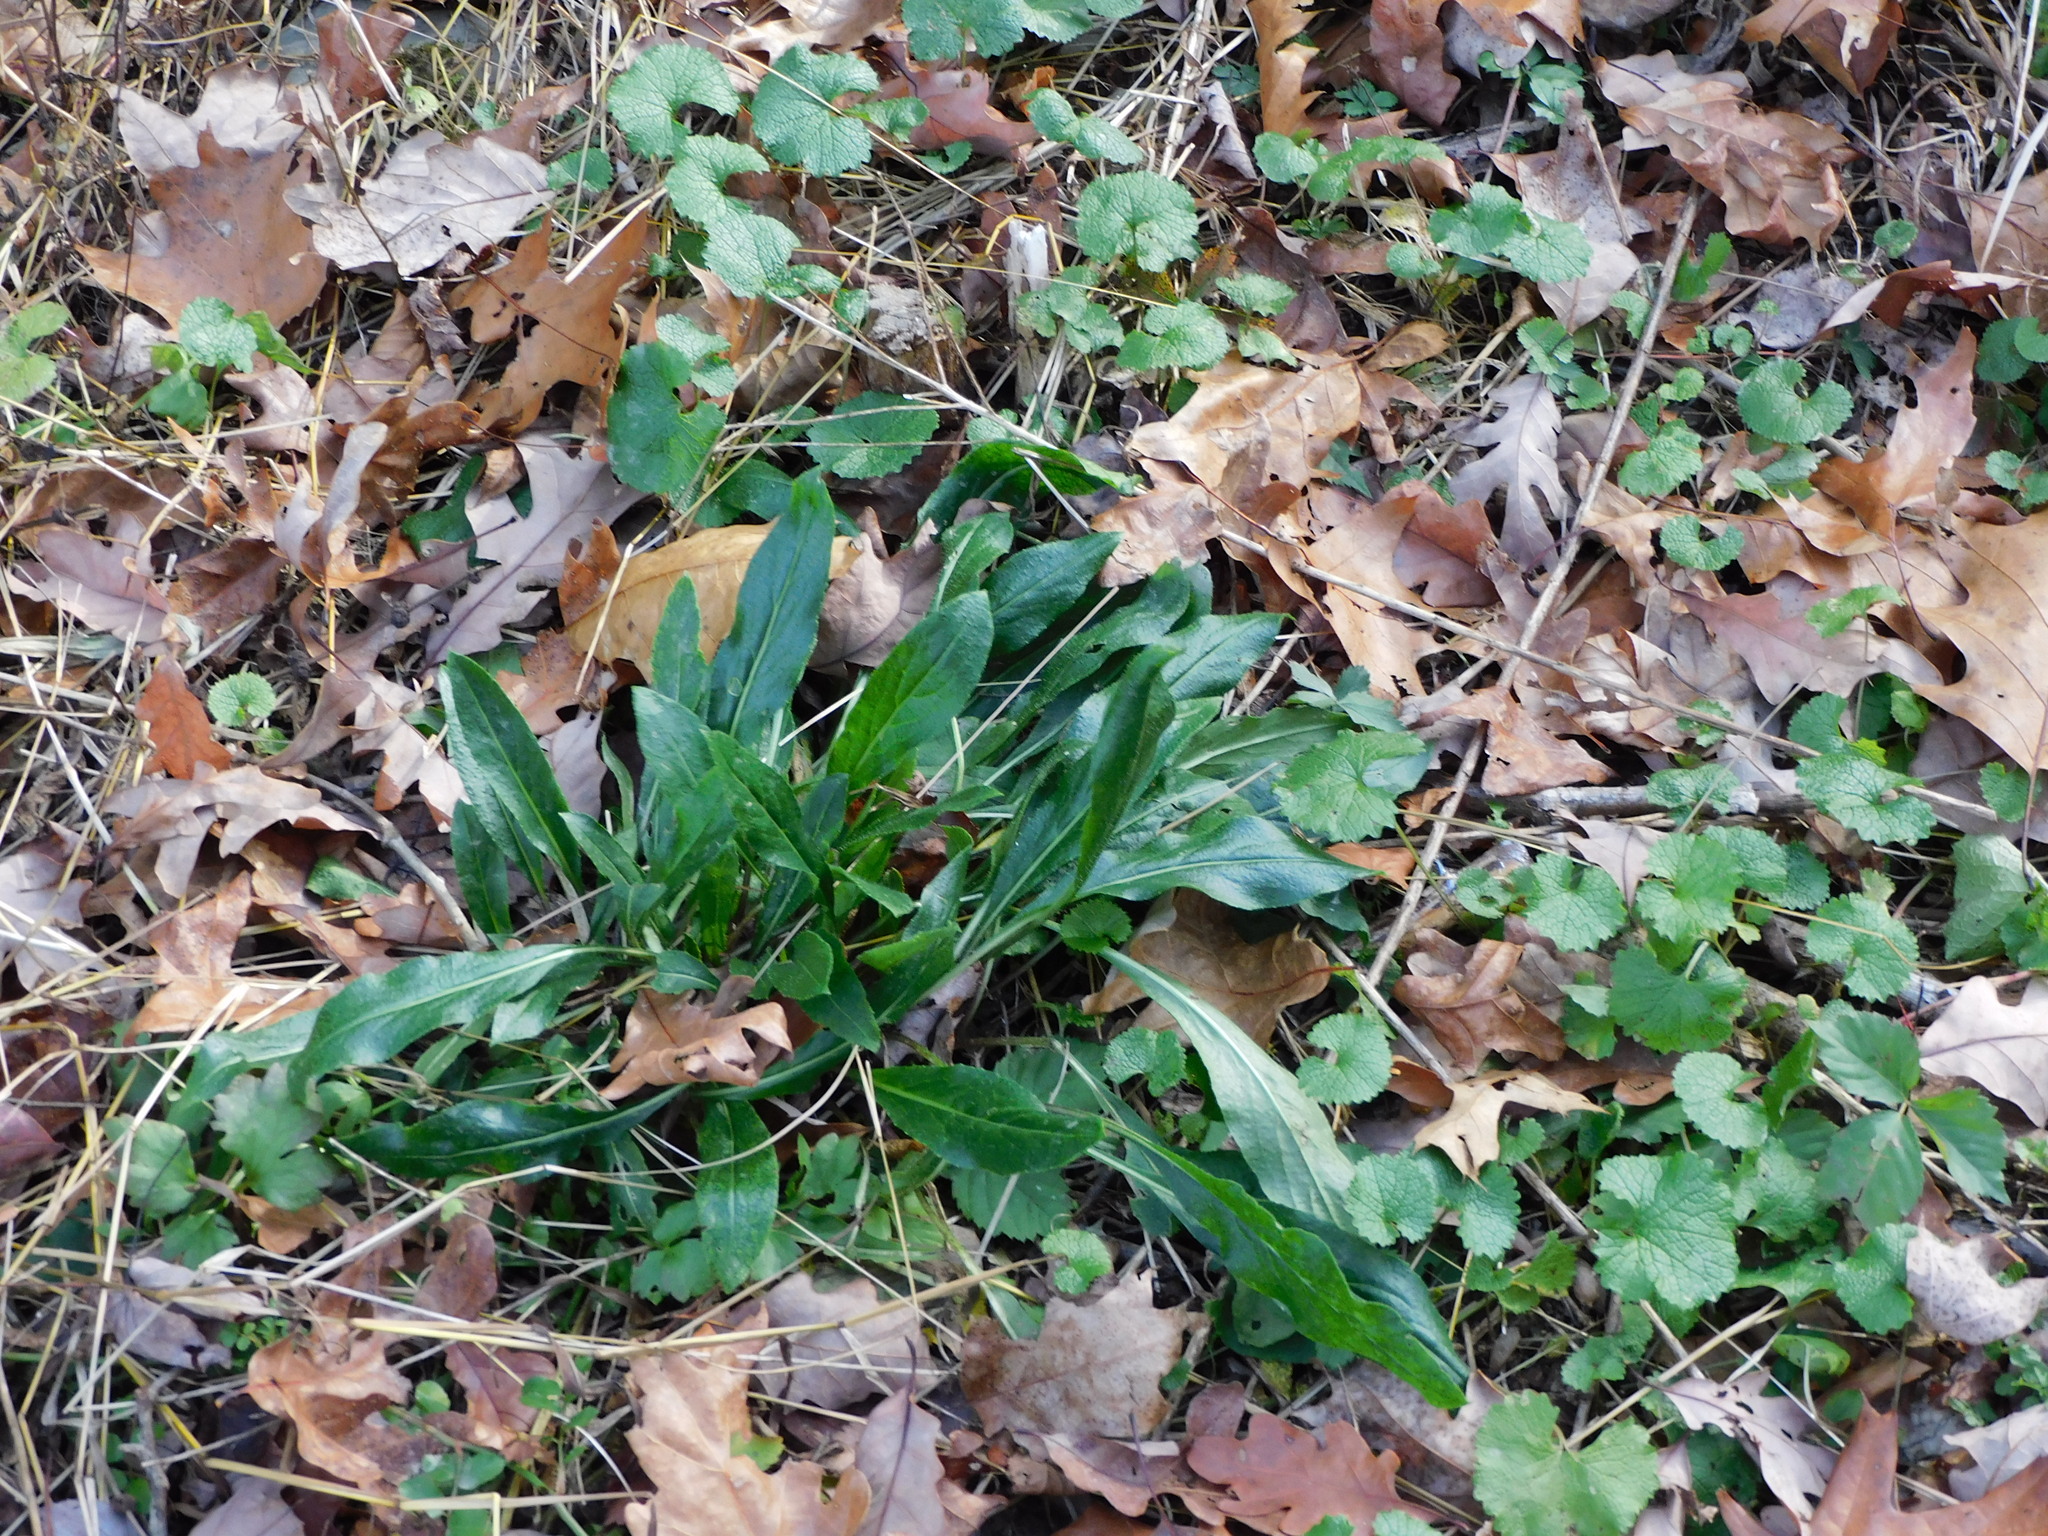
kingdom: Plantae
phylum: Tracheophyta
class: Magnoliopsida
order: Brassicales
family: Brassicaceae
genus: Hesperis
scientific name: Hesperis matronalis
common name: Dame's-violet
